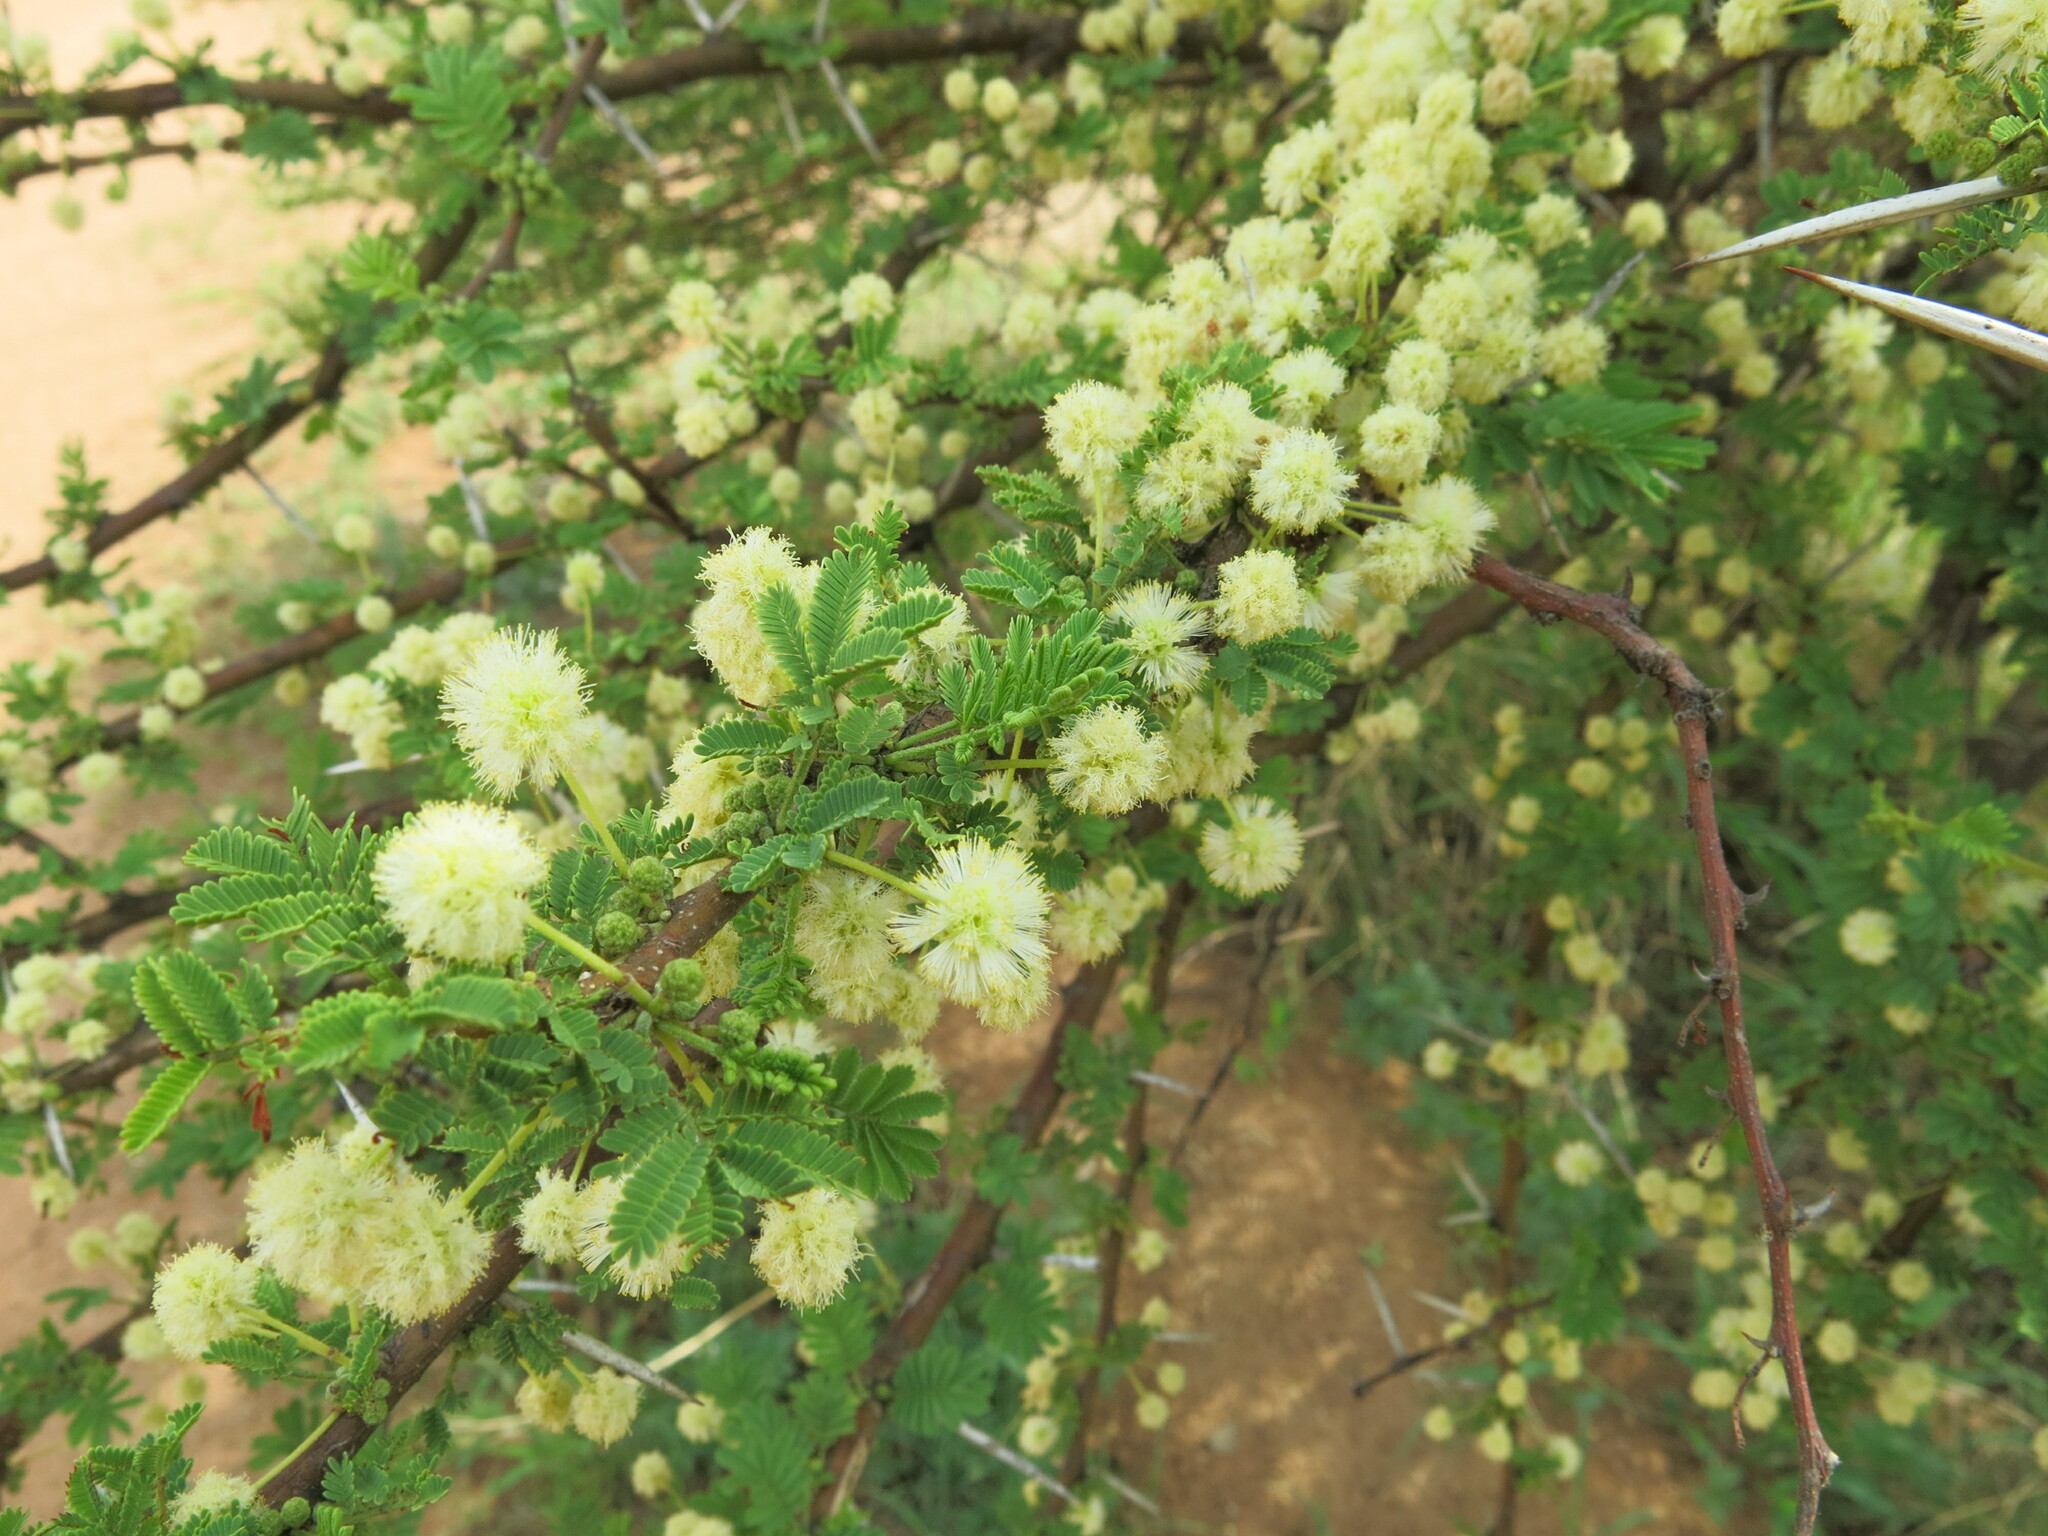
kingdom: Plantae
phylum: Tracheophyta
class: Magnoliopsida
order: Fabales
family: Fabaceae
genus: Vachellia
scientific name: Vachellia tortilis
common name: Umbrella thorn acacia
